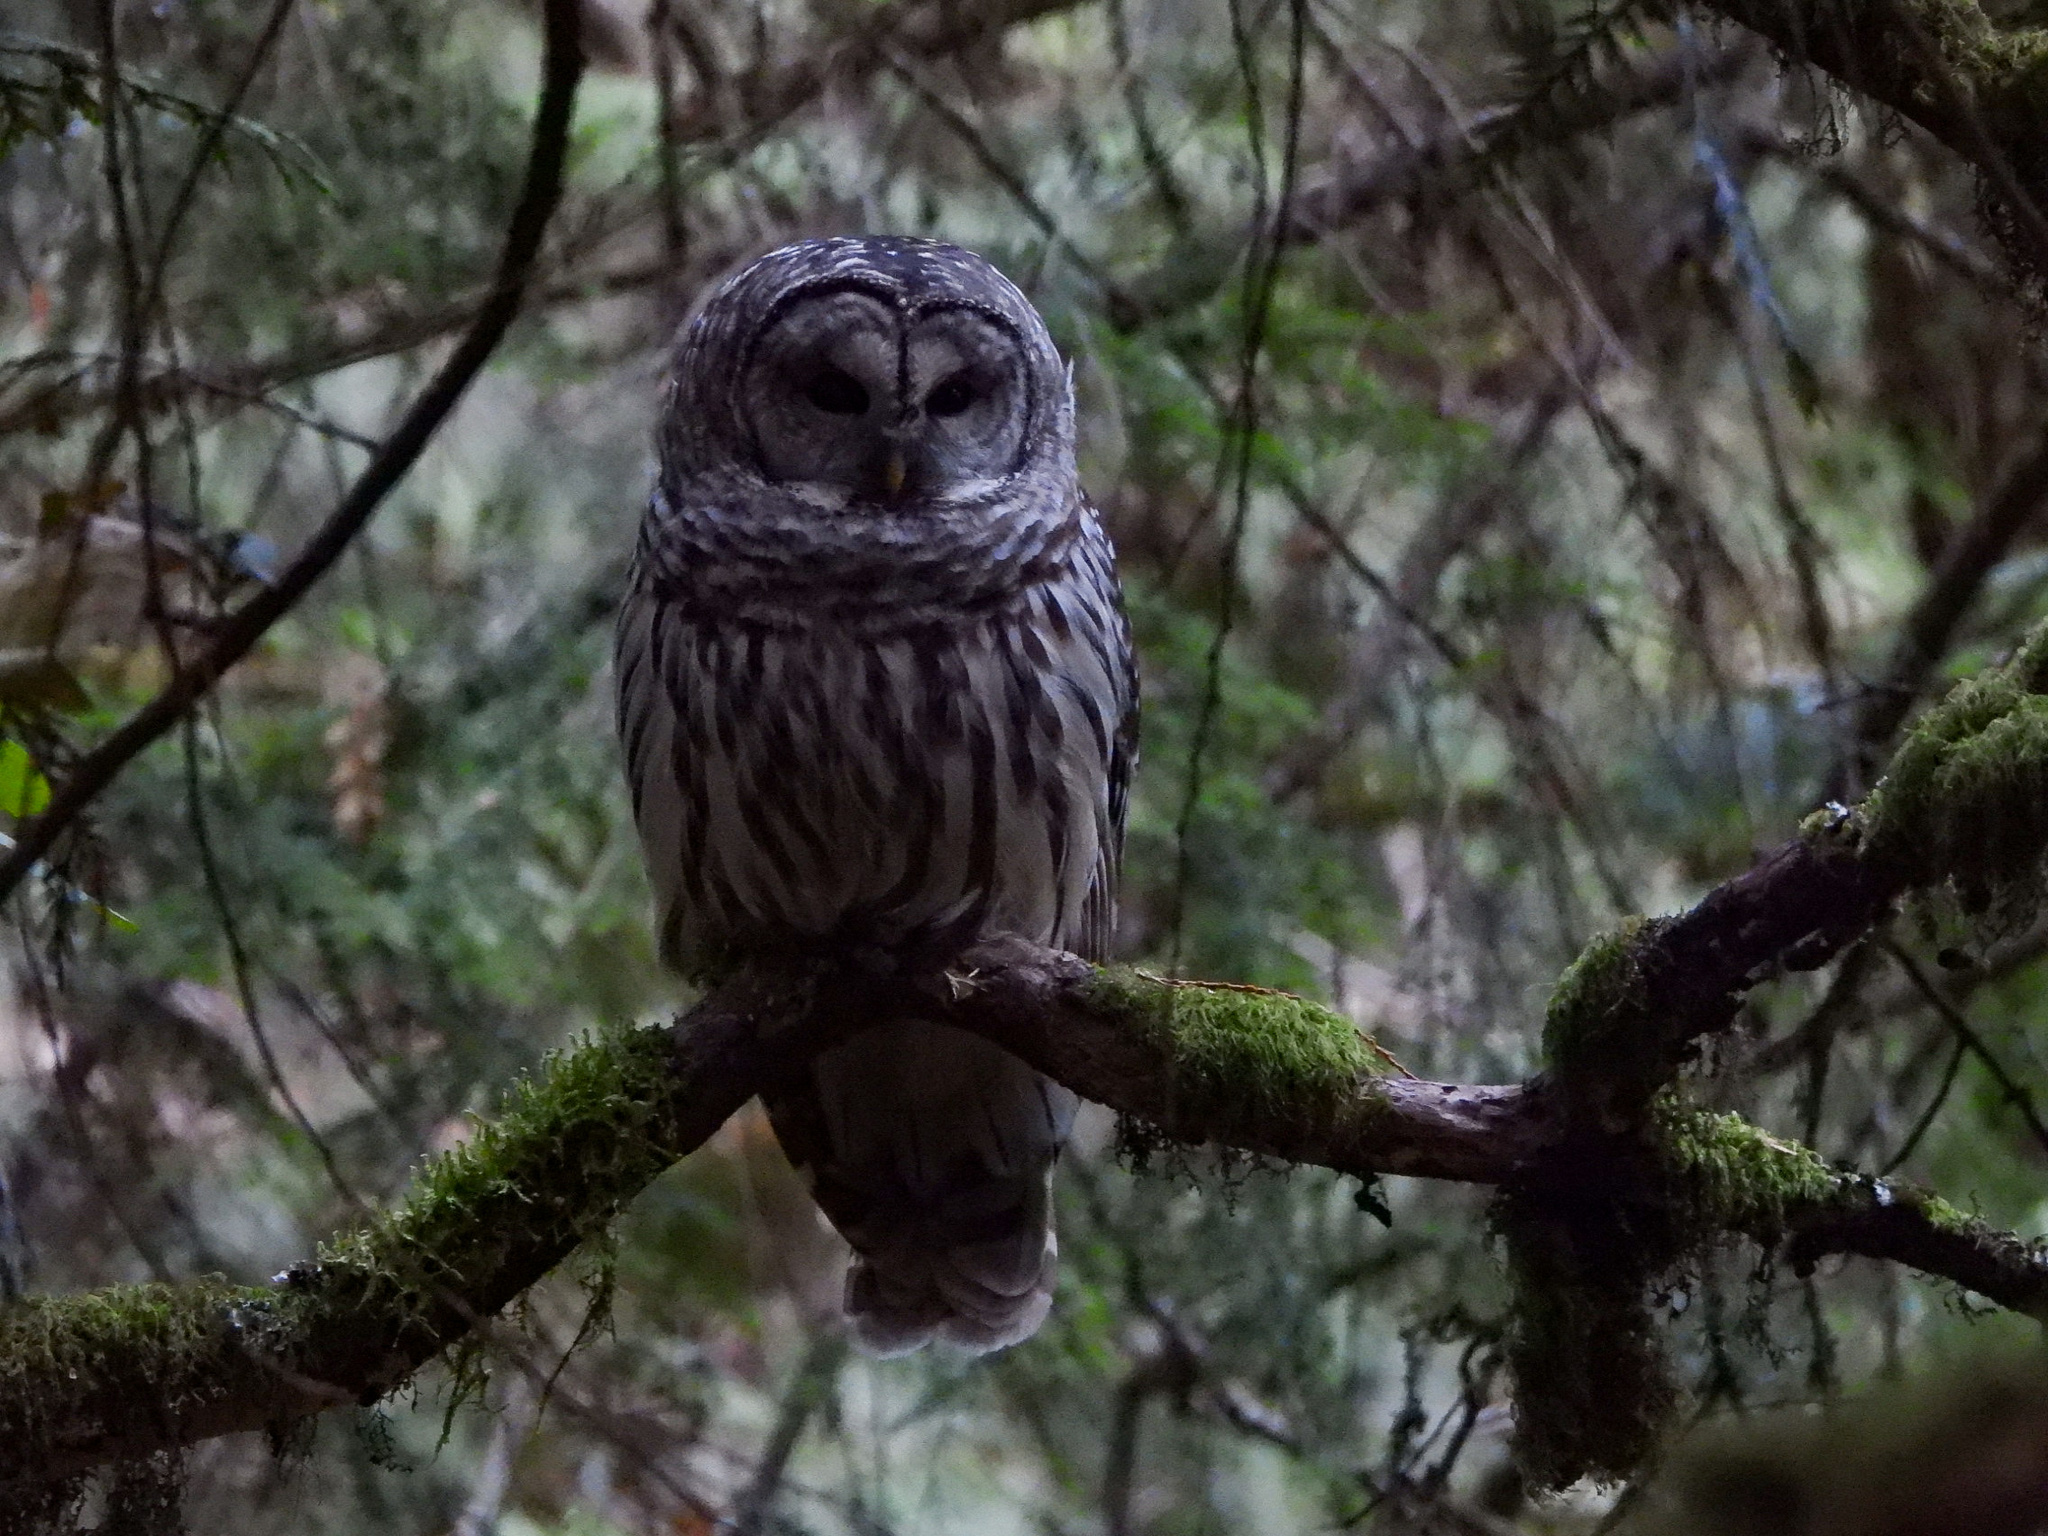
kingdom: Animalia
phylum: Chordata
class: Aves
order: Strigiformes
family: Strigidae
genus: Strix
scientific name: Strix varia
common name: Barred owl
